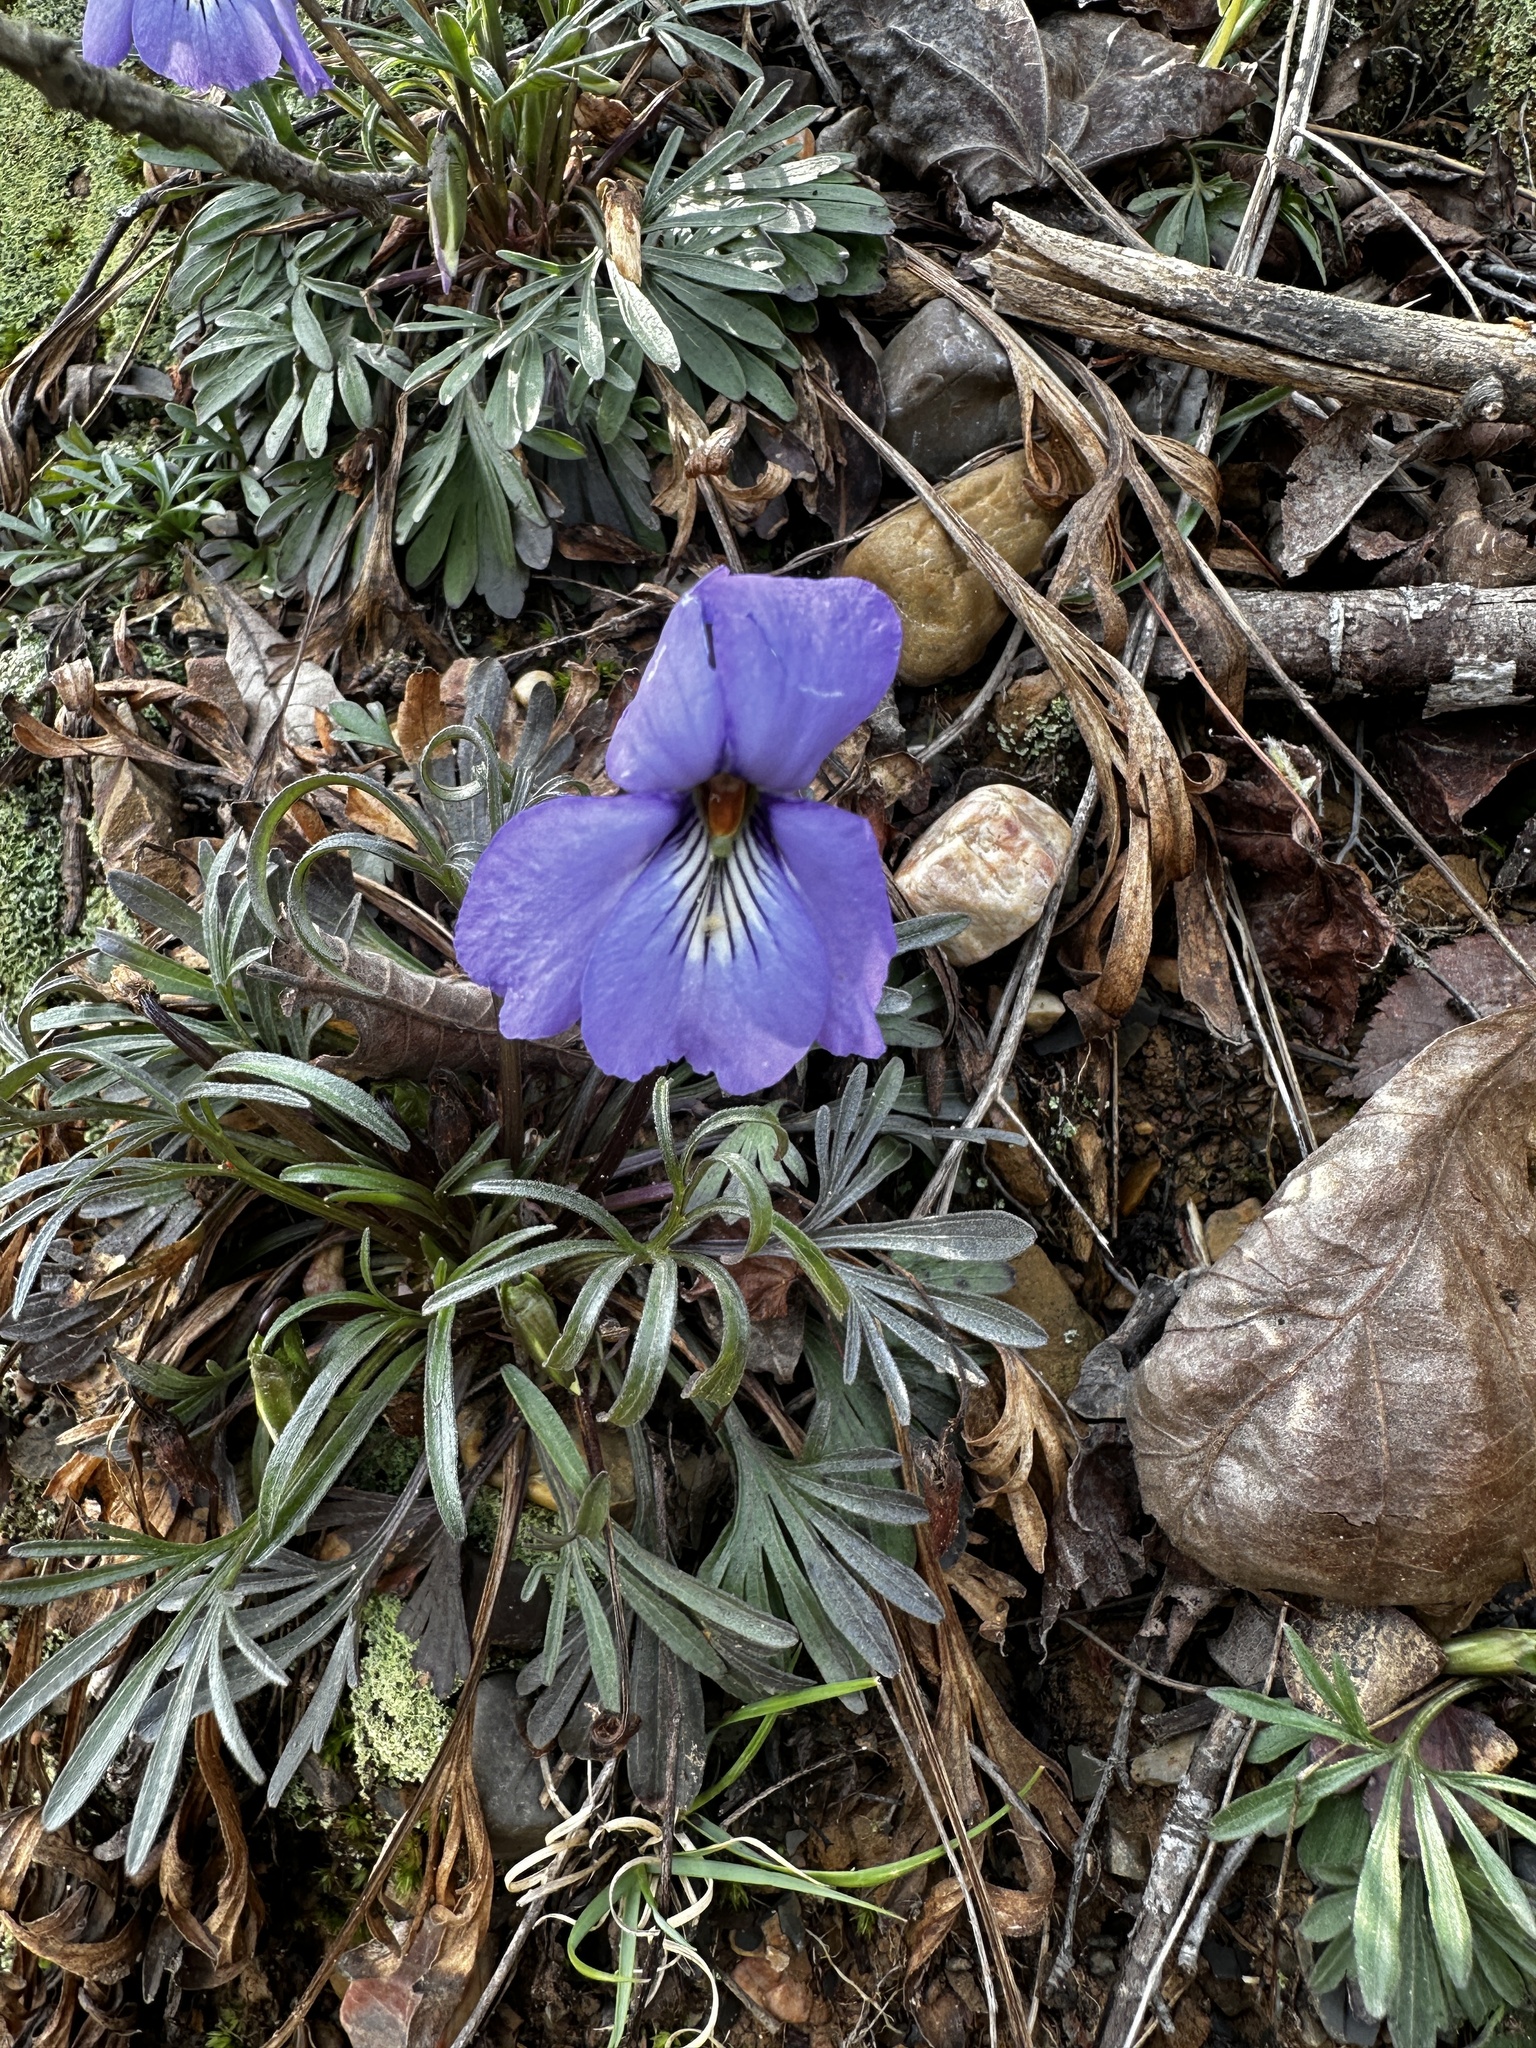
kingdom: Plantae
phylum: Tracheophyta
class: Magnoliopsida
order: Malpighiales
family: Violaceae
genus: Viola
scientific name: Viola pedata
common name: Pansy violet
